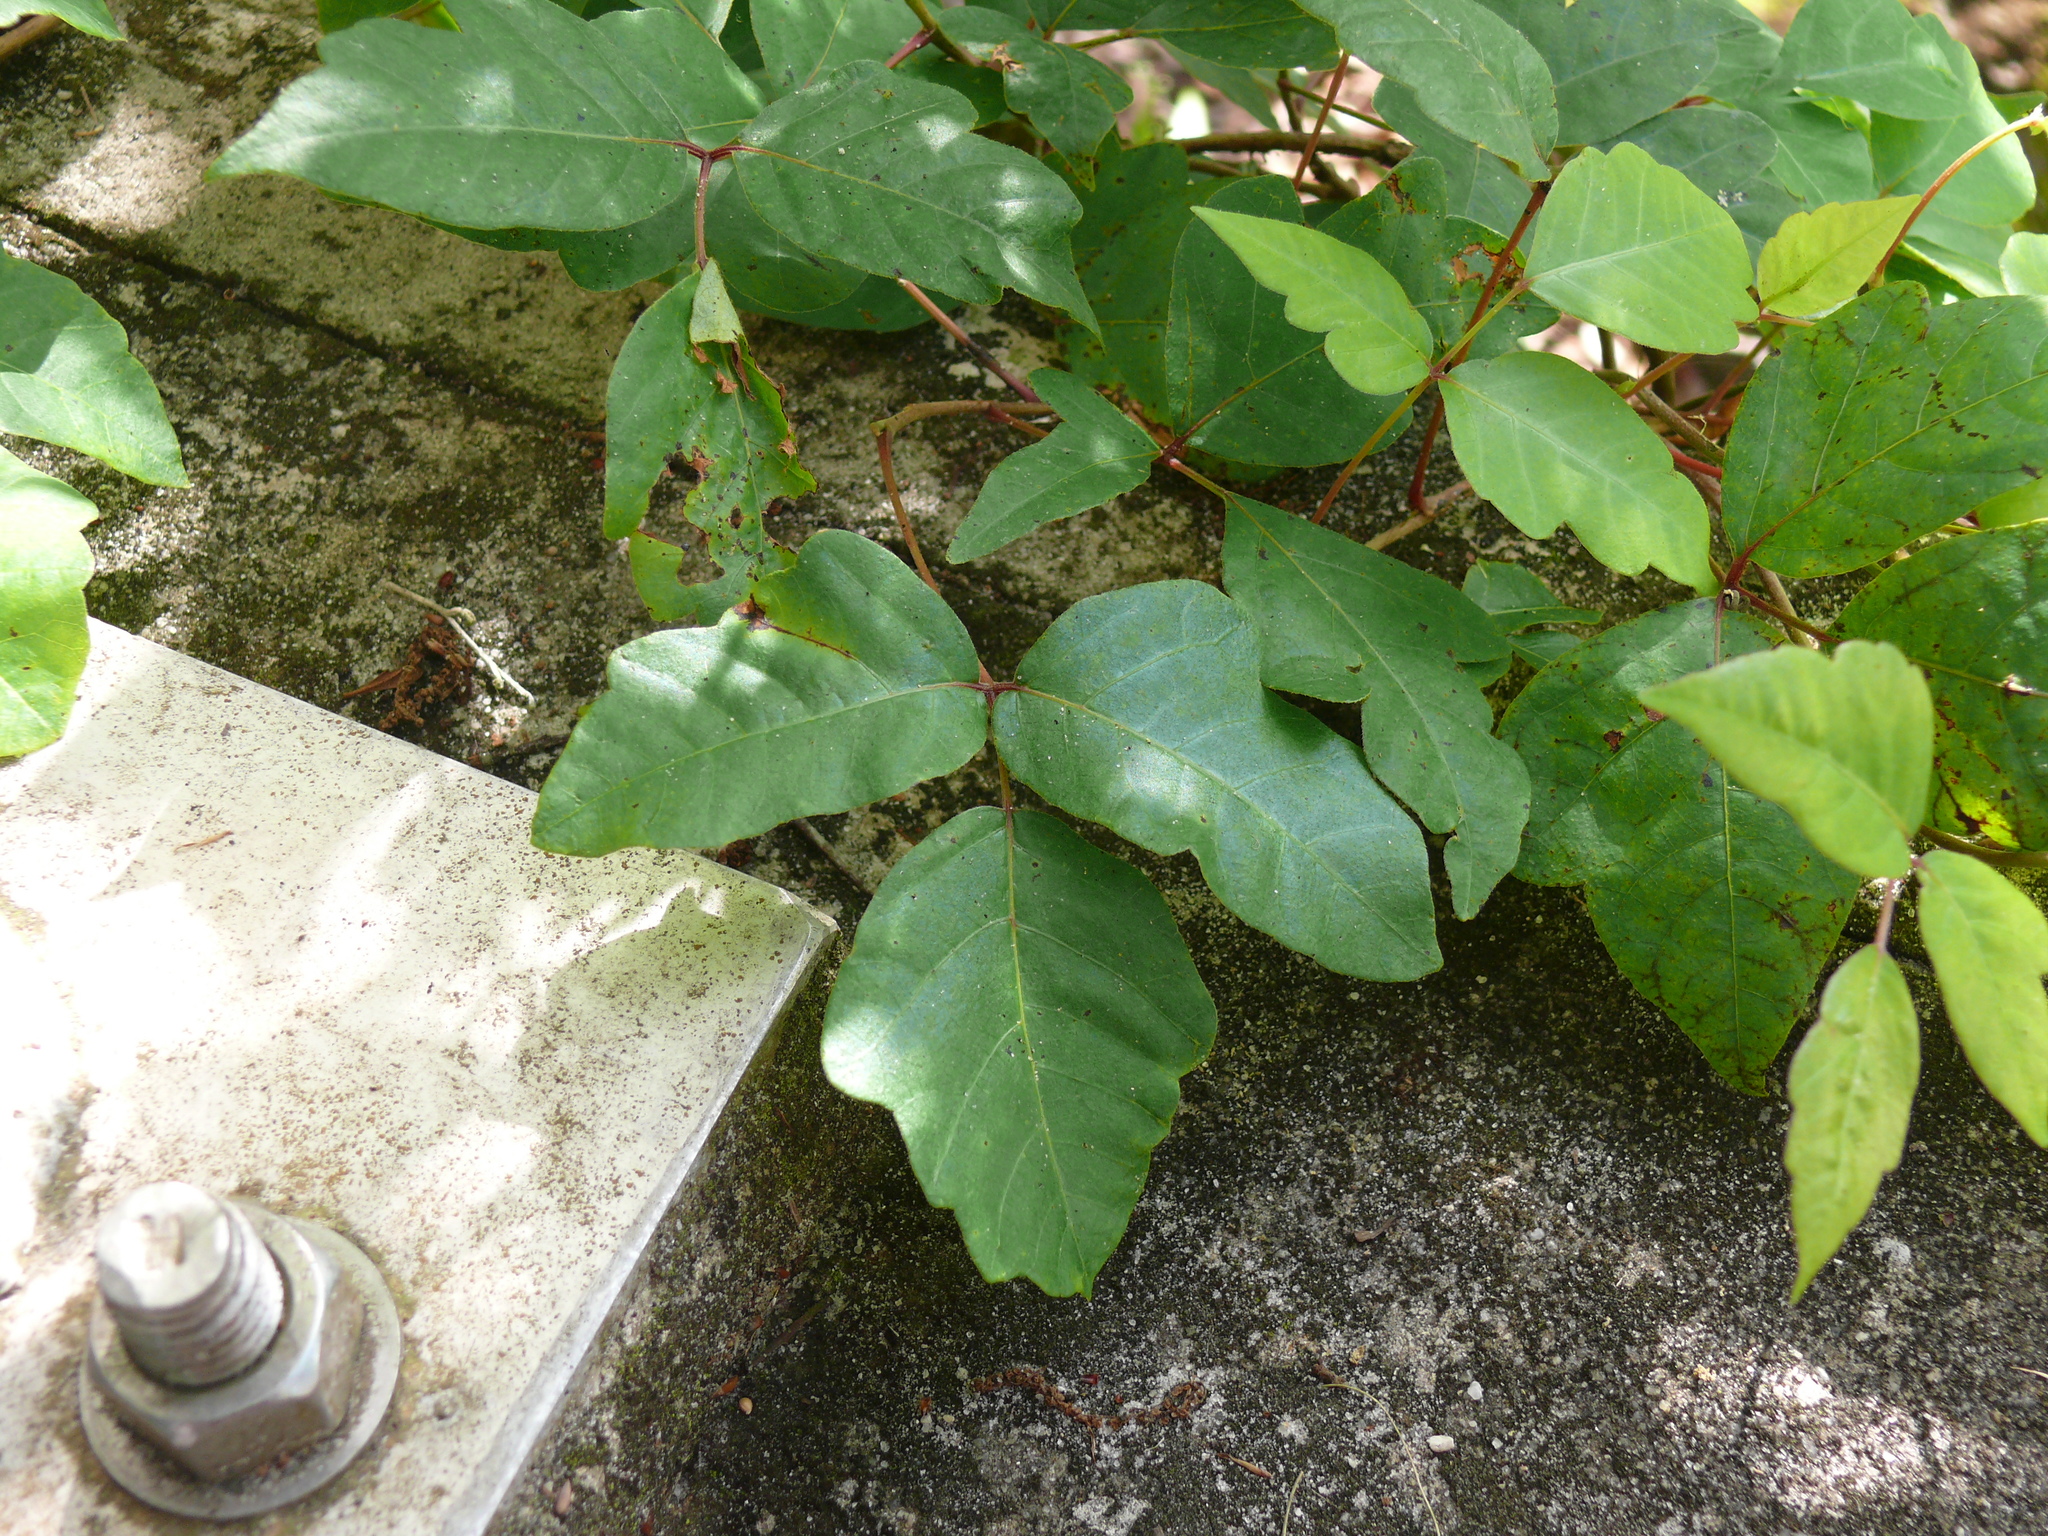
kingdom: Plantae
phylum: Tracheophyta
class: Magnoliopsida
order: Sapindales
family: Anacardiaceae
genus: Toxicodendron
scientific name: Toxicodendron radicans
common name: Poison ivy
